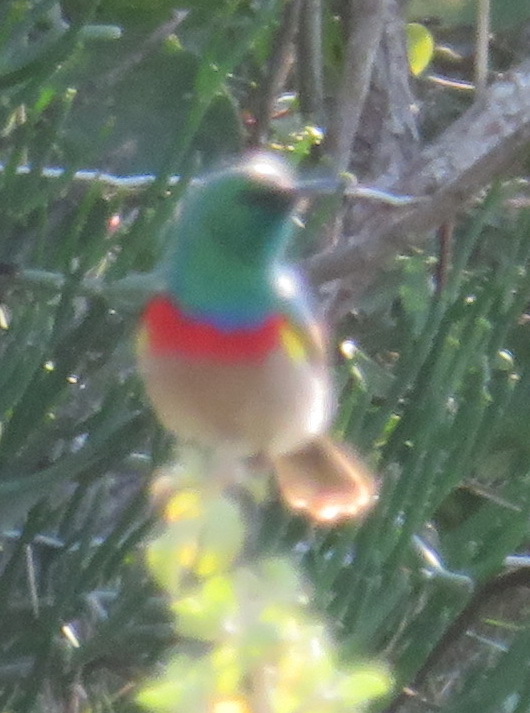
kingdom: Animalia
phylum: Chordata
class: Aves
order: Passeriformes
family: Nectariniidae
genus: Cinnyris
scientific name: Cinnyris chalybeus
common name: Southern double-collared sunbird
